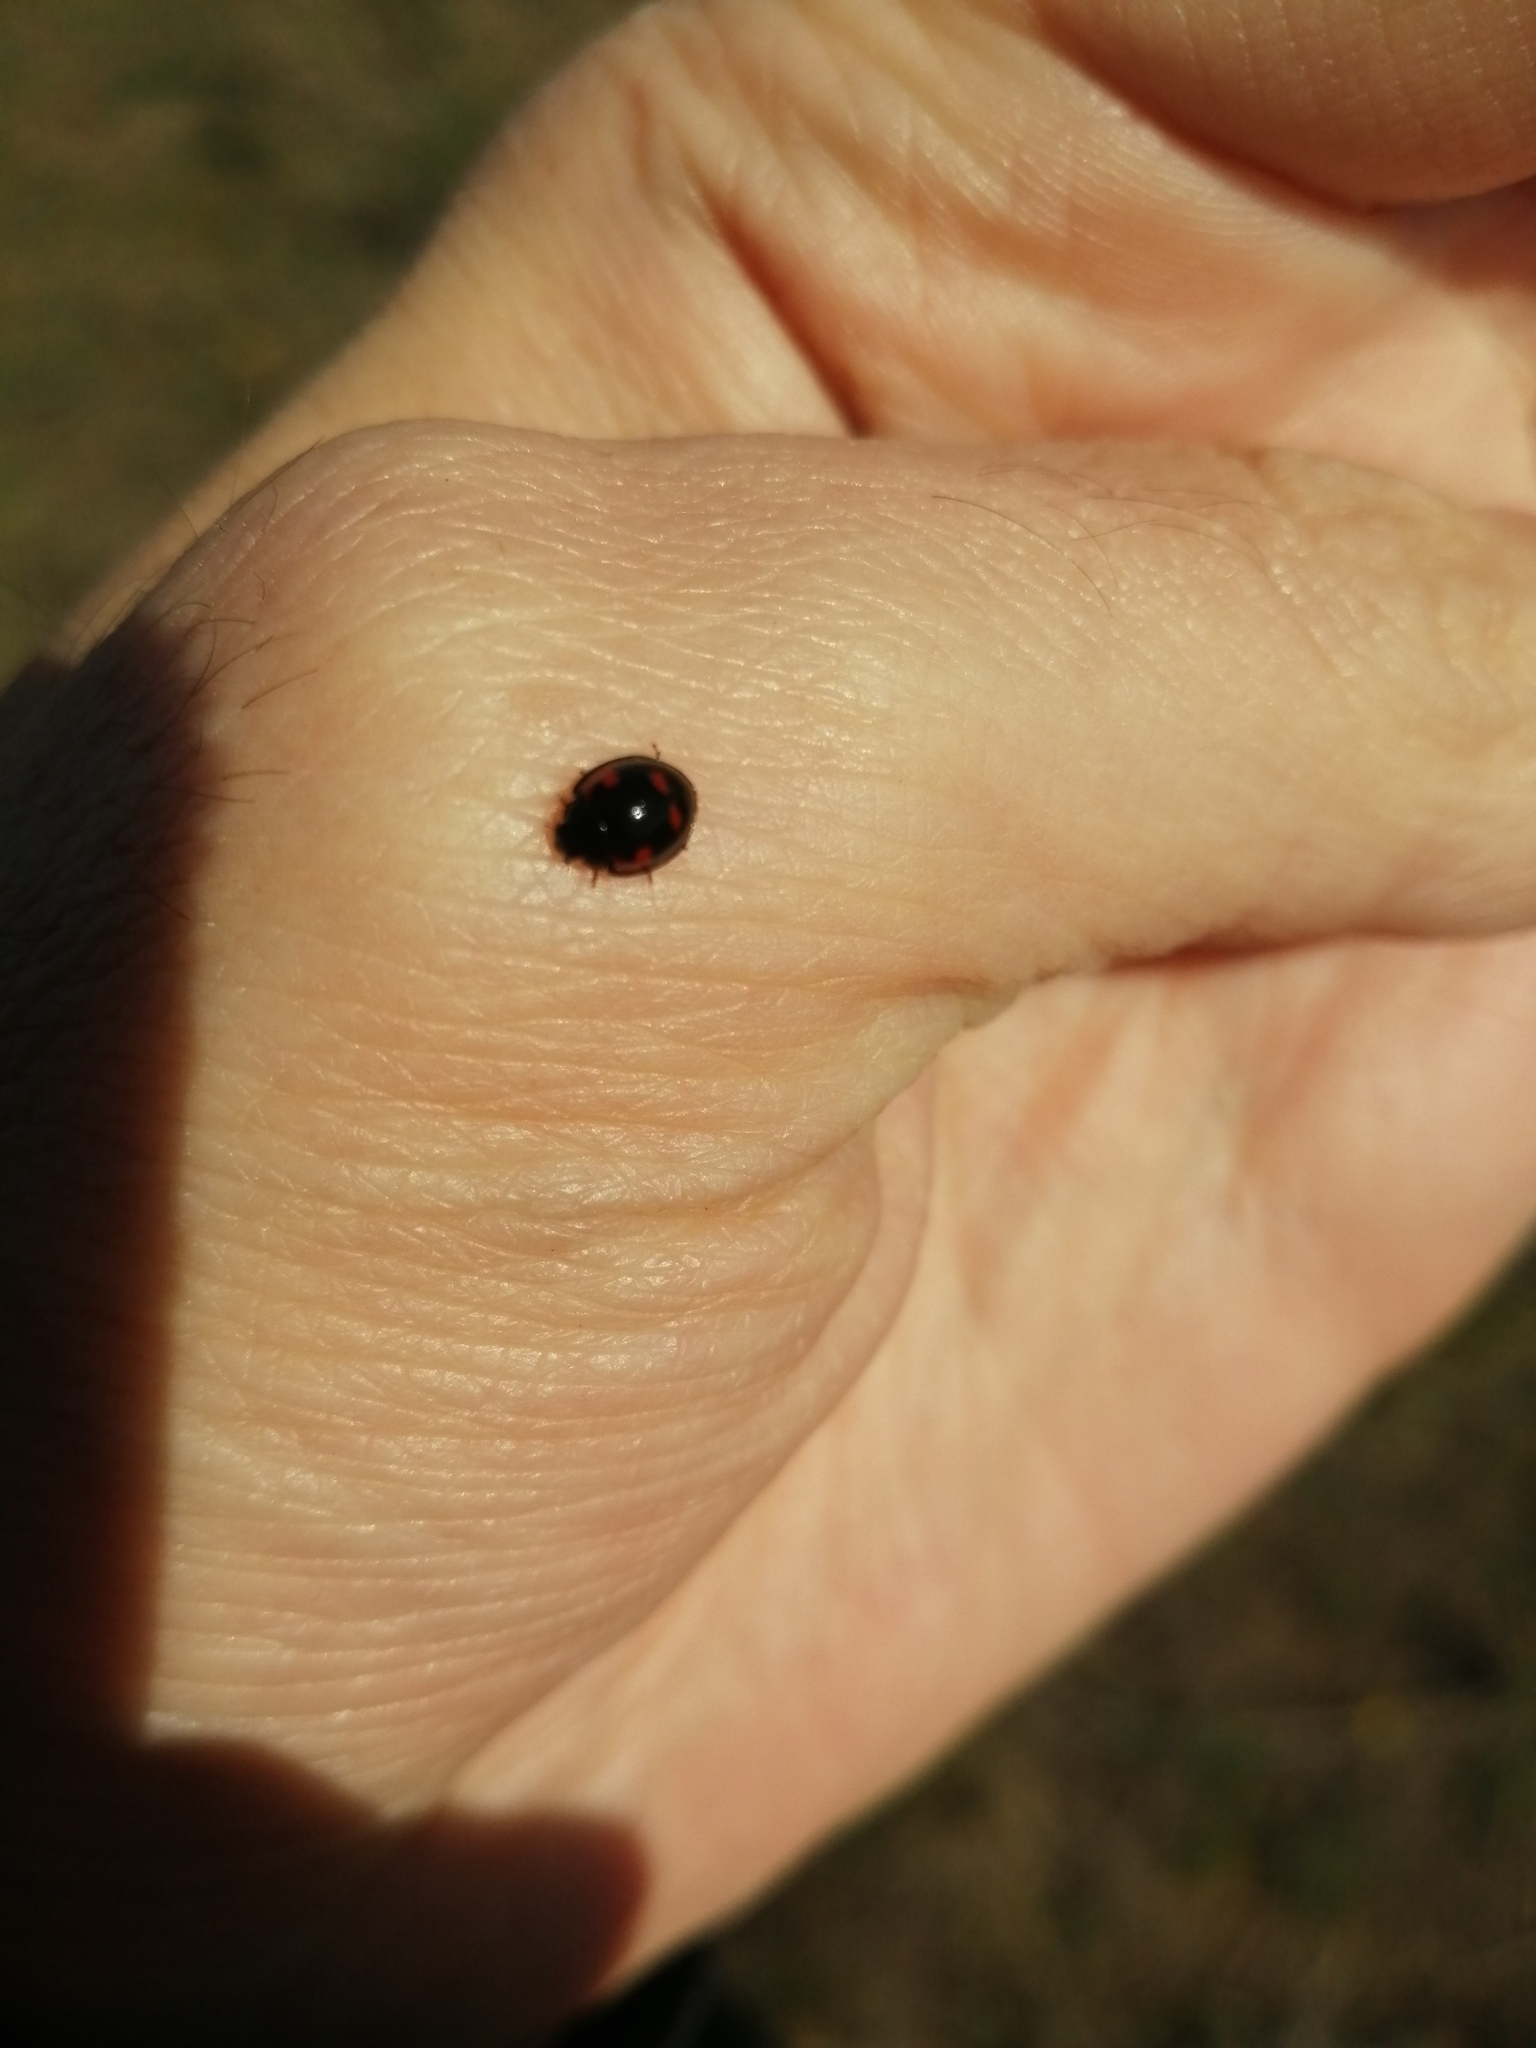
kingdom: Animalia
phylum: Arthropoda
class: Insecta
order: Coleoptera
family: Coccinellidae
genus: Brumus
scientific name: Brumus quadripustulatus
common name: Ladybird beetle
